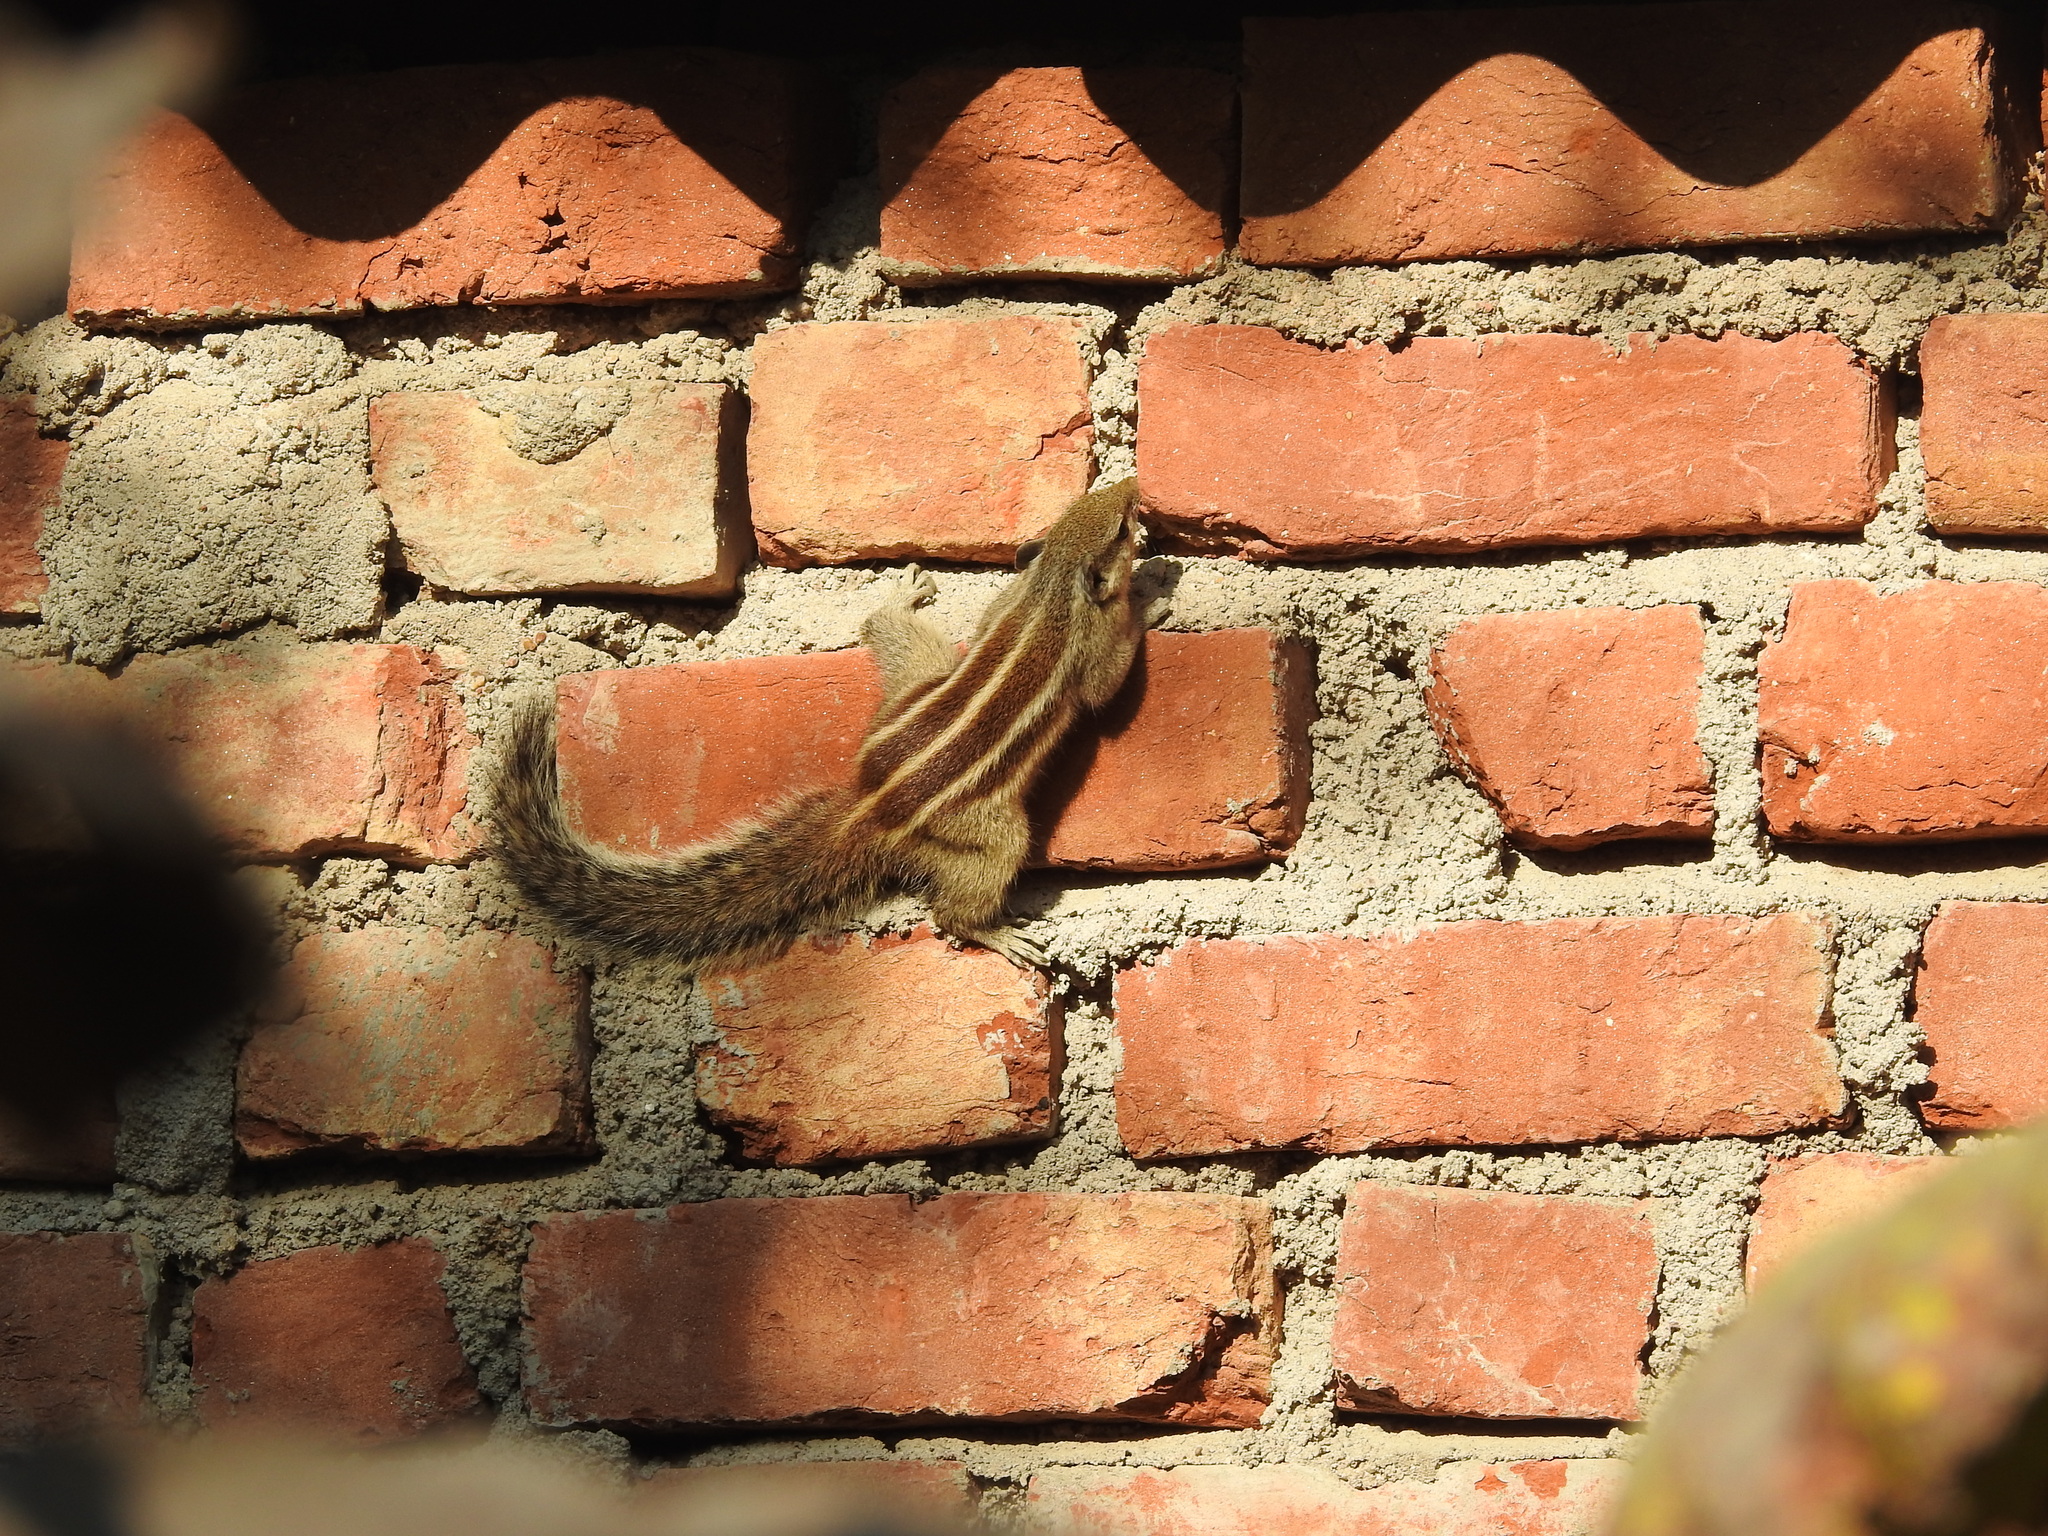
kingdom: Animalia
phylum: Chordata
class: Mammalia
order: Rodentia
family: Sciuridae
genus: Funambulus
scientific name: Funambulus pennantii
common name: Northern palm squirrel
